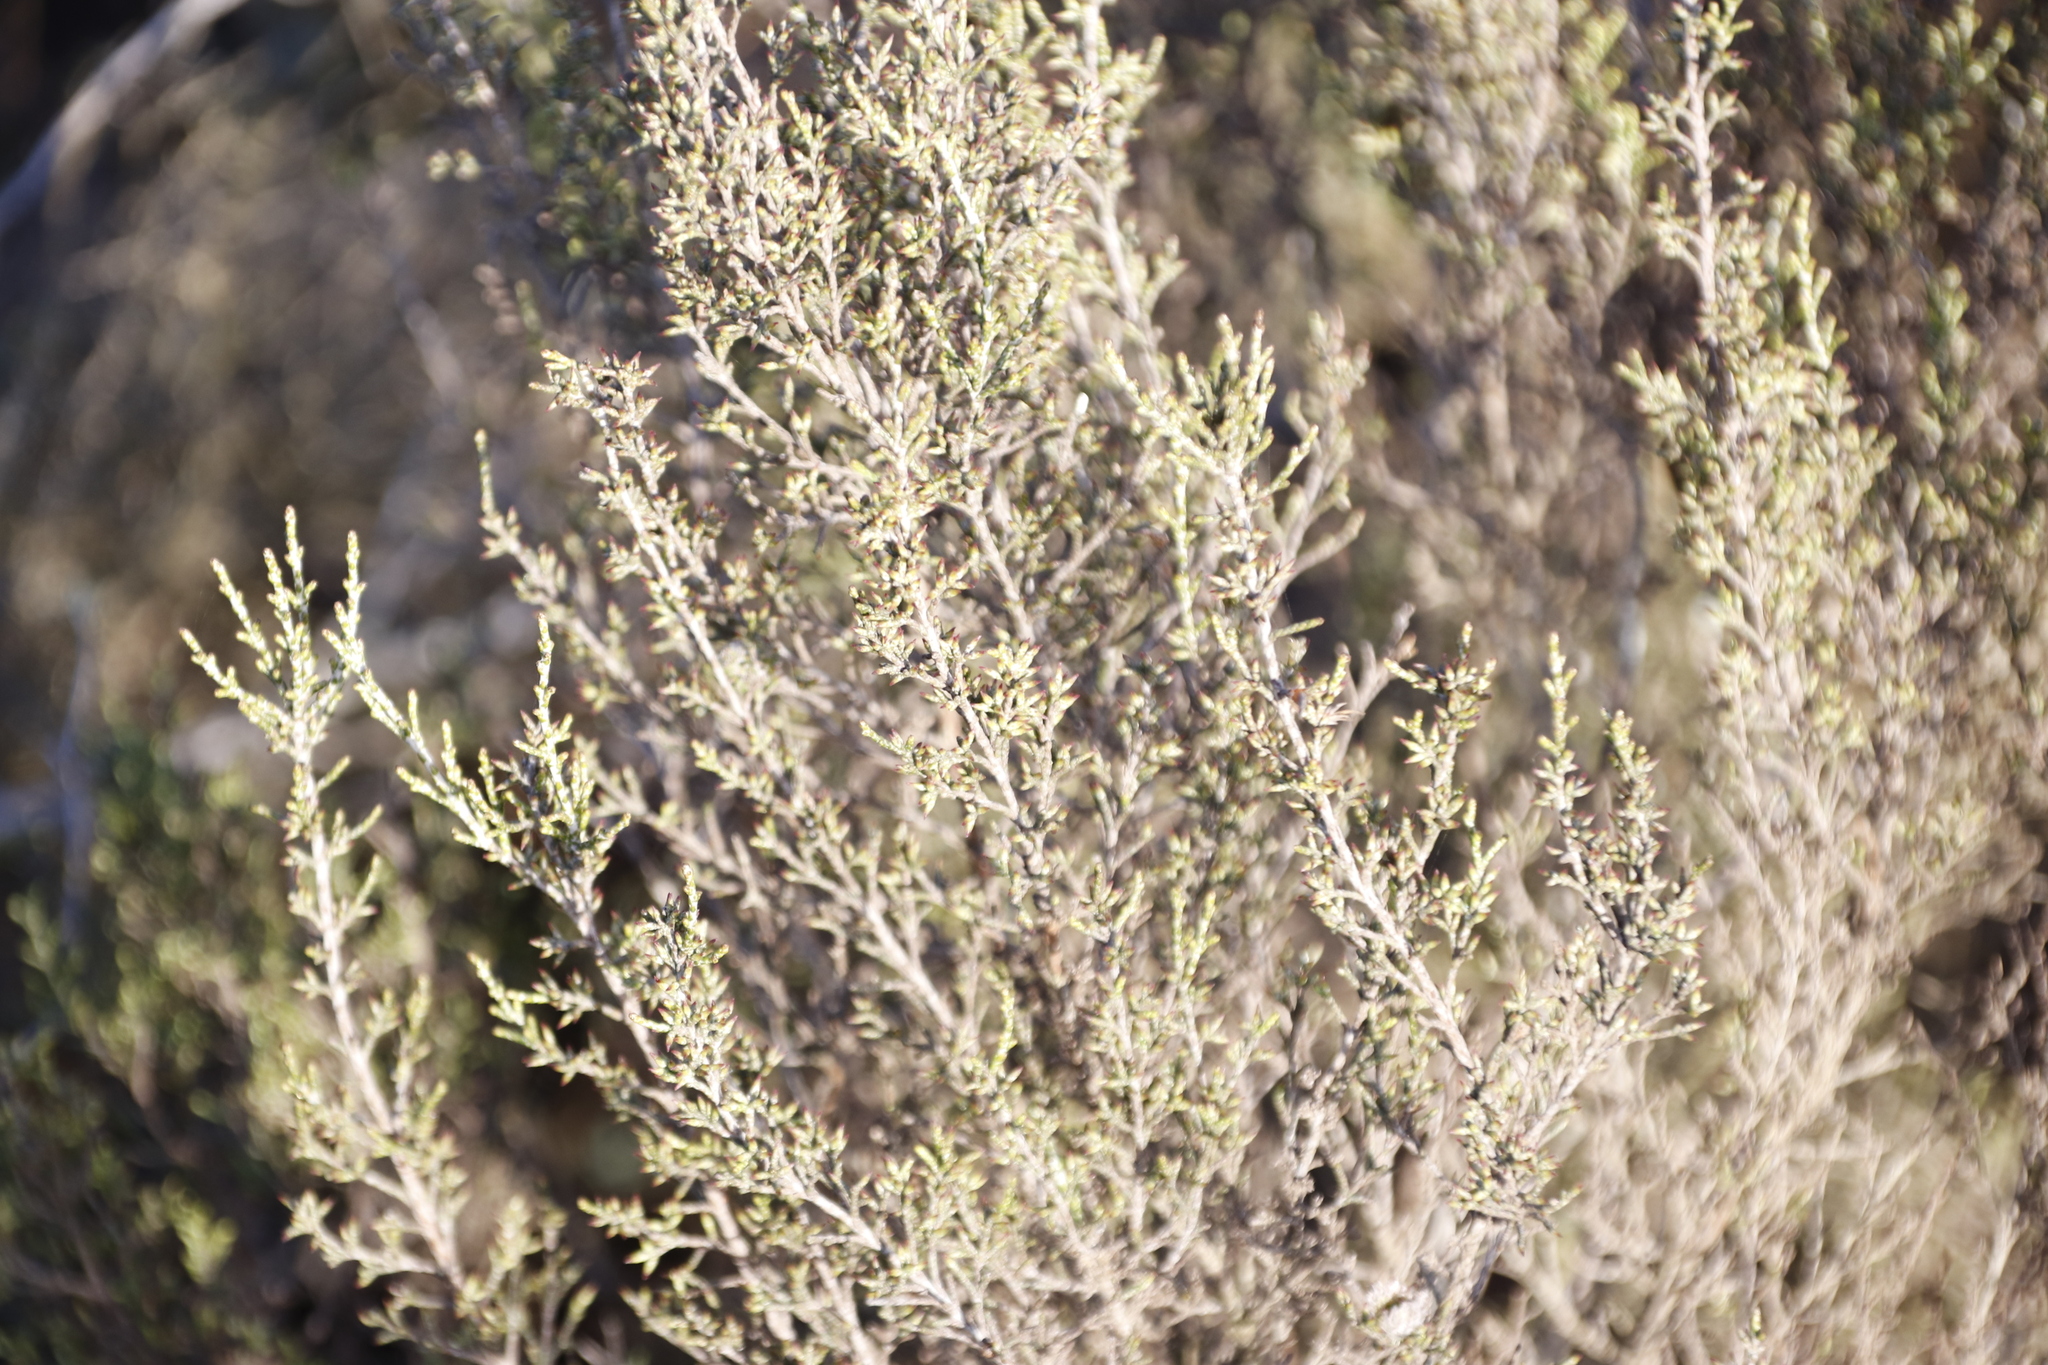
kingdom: Plantae
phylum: Tracheophyta
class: Magnoliopsida
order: Asterales
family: Asteraceae
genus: Dicerothamnus
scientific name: Dicerothamnus rhinocerotis
